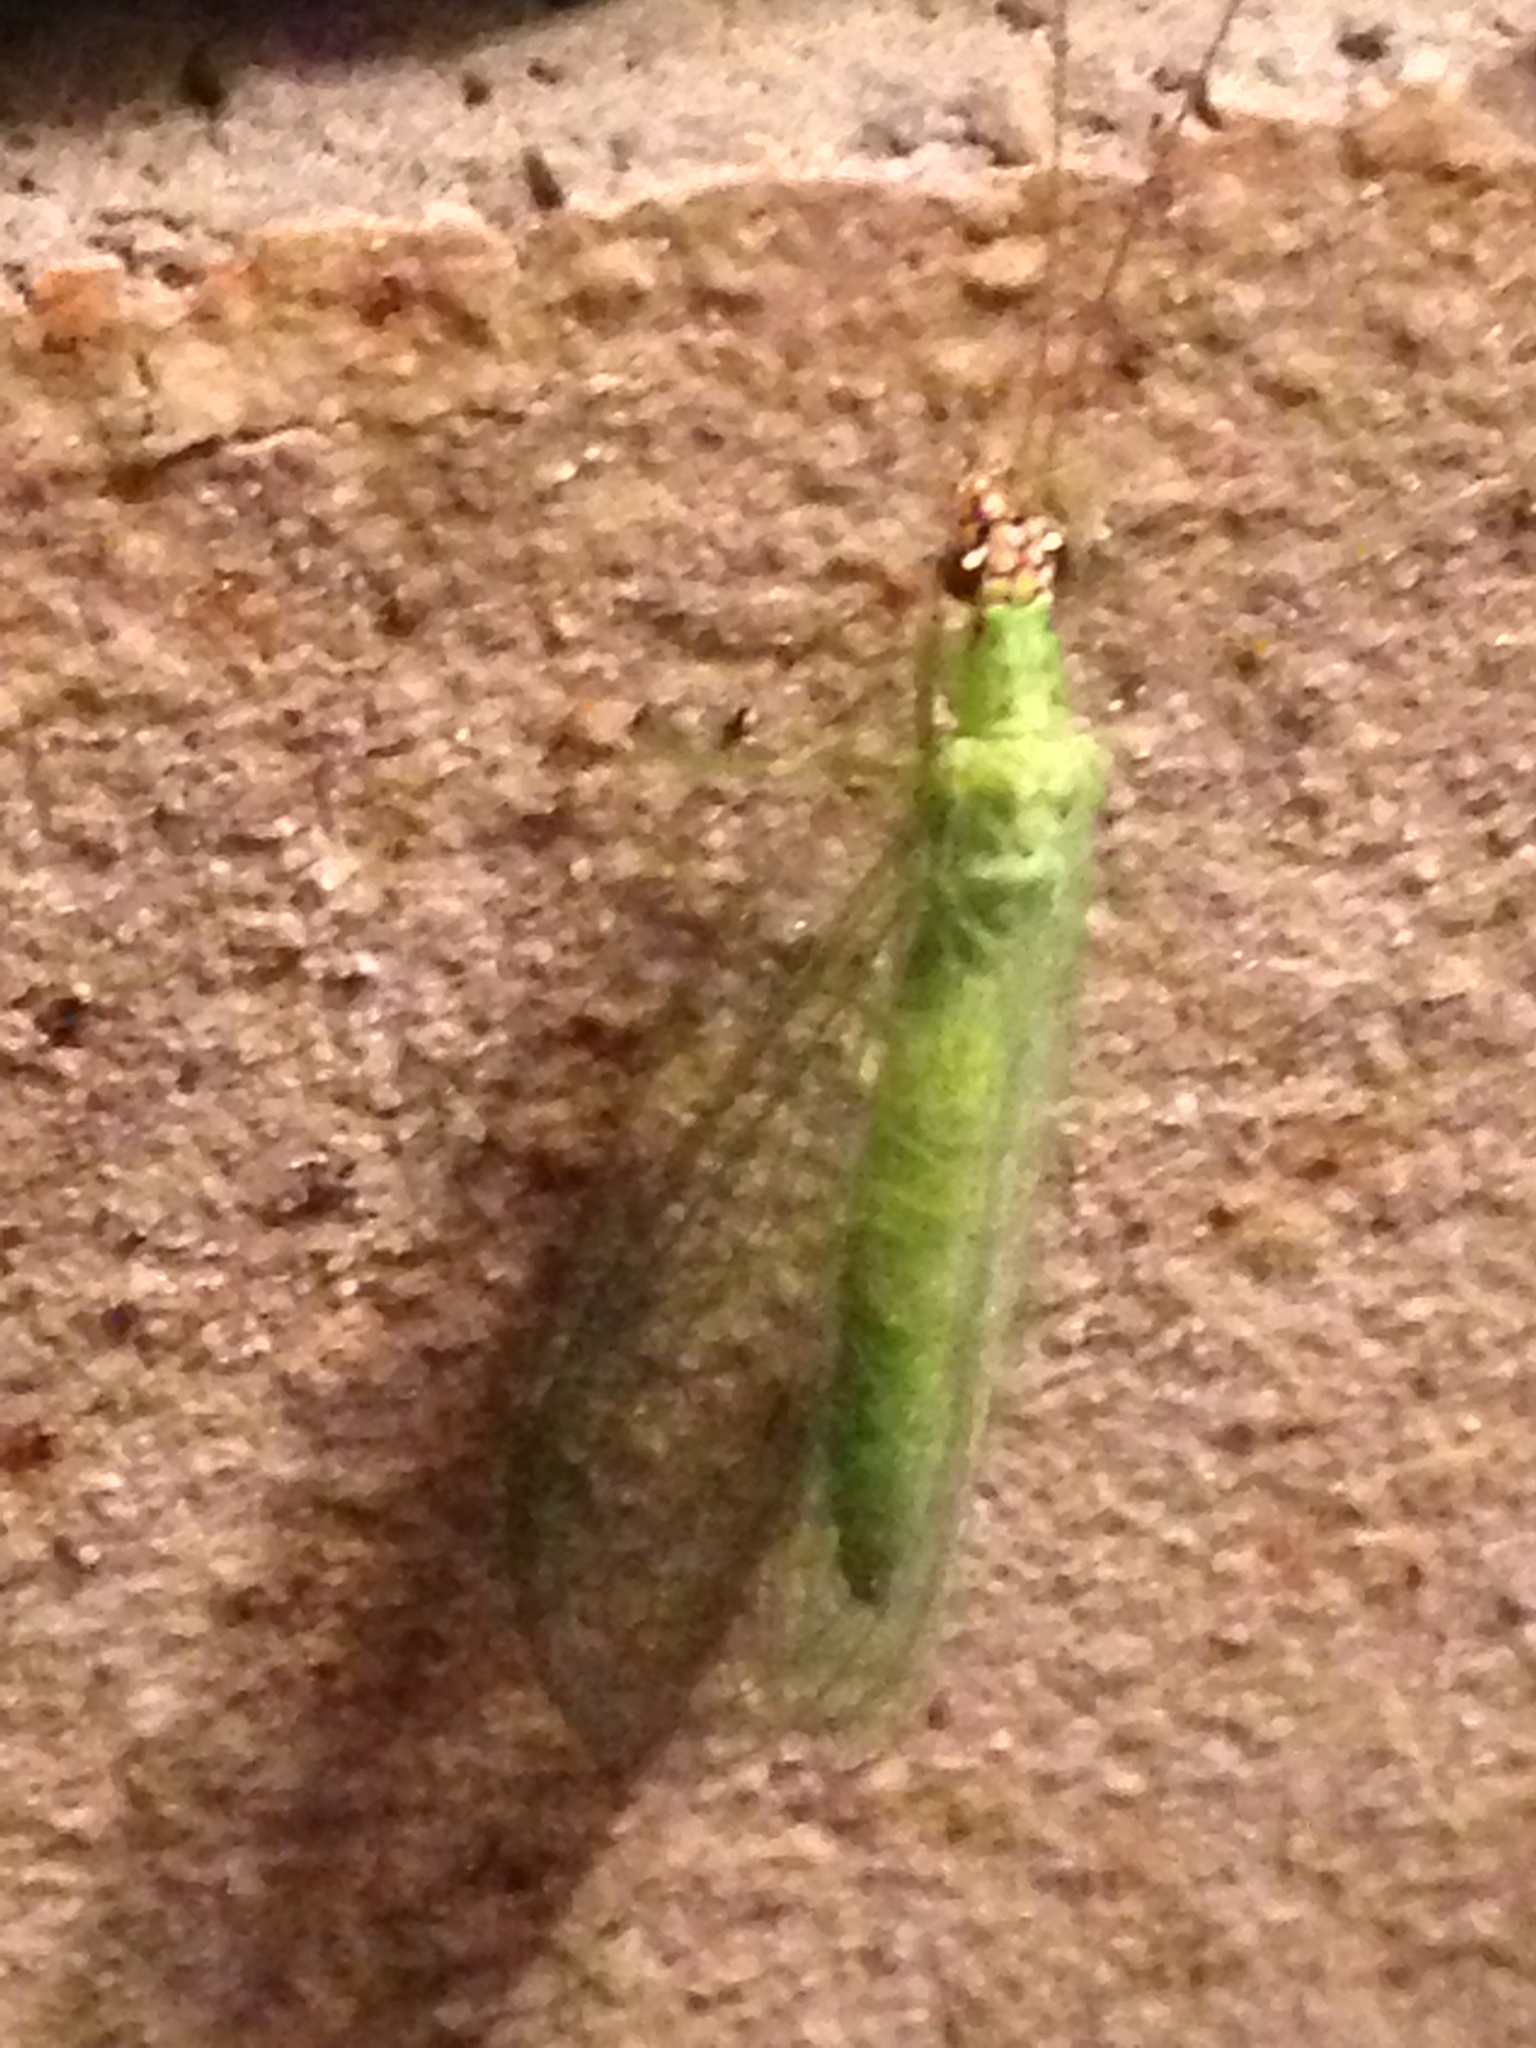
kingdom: Animalia
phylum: Arthropoda
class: Insecta
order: Neuroptera
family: Chrysopidae
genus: Chrysopa
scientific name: Chrysopa oculata
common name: Golden-eyed lacewing
